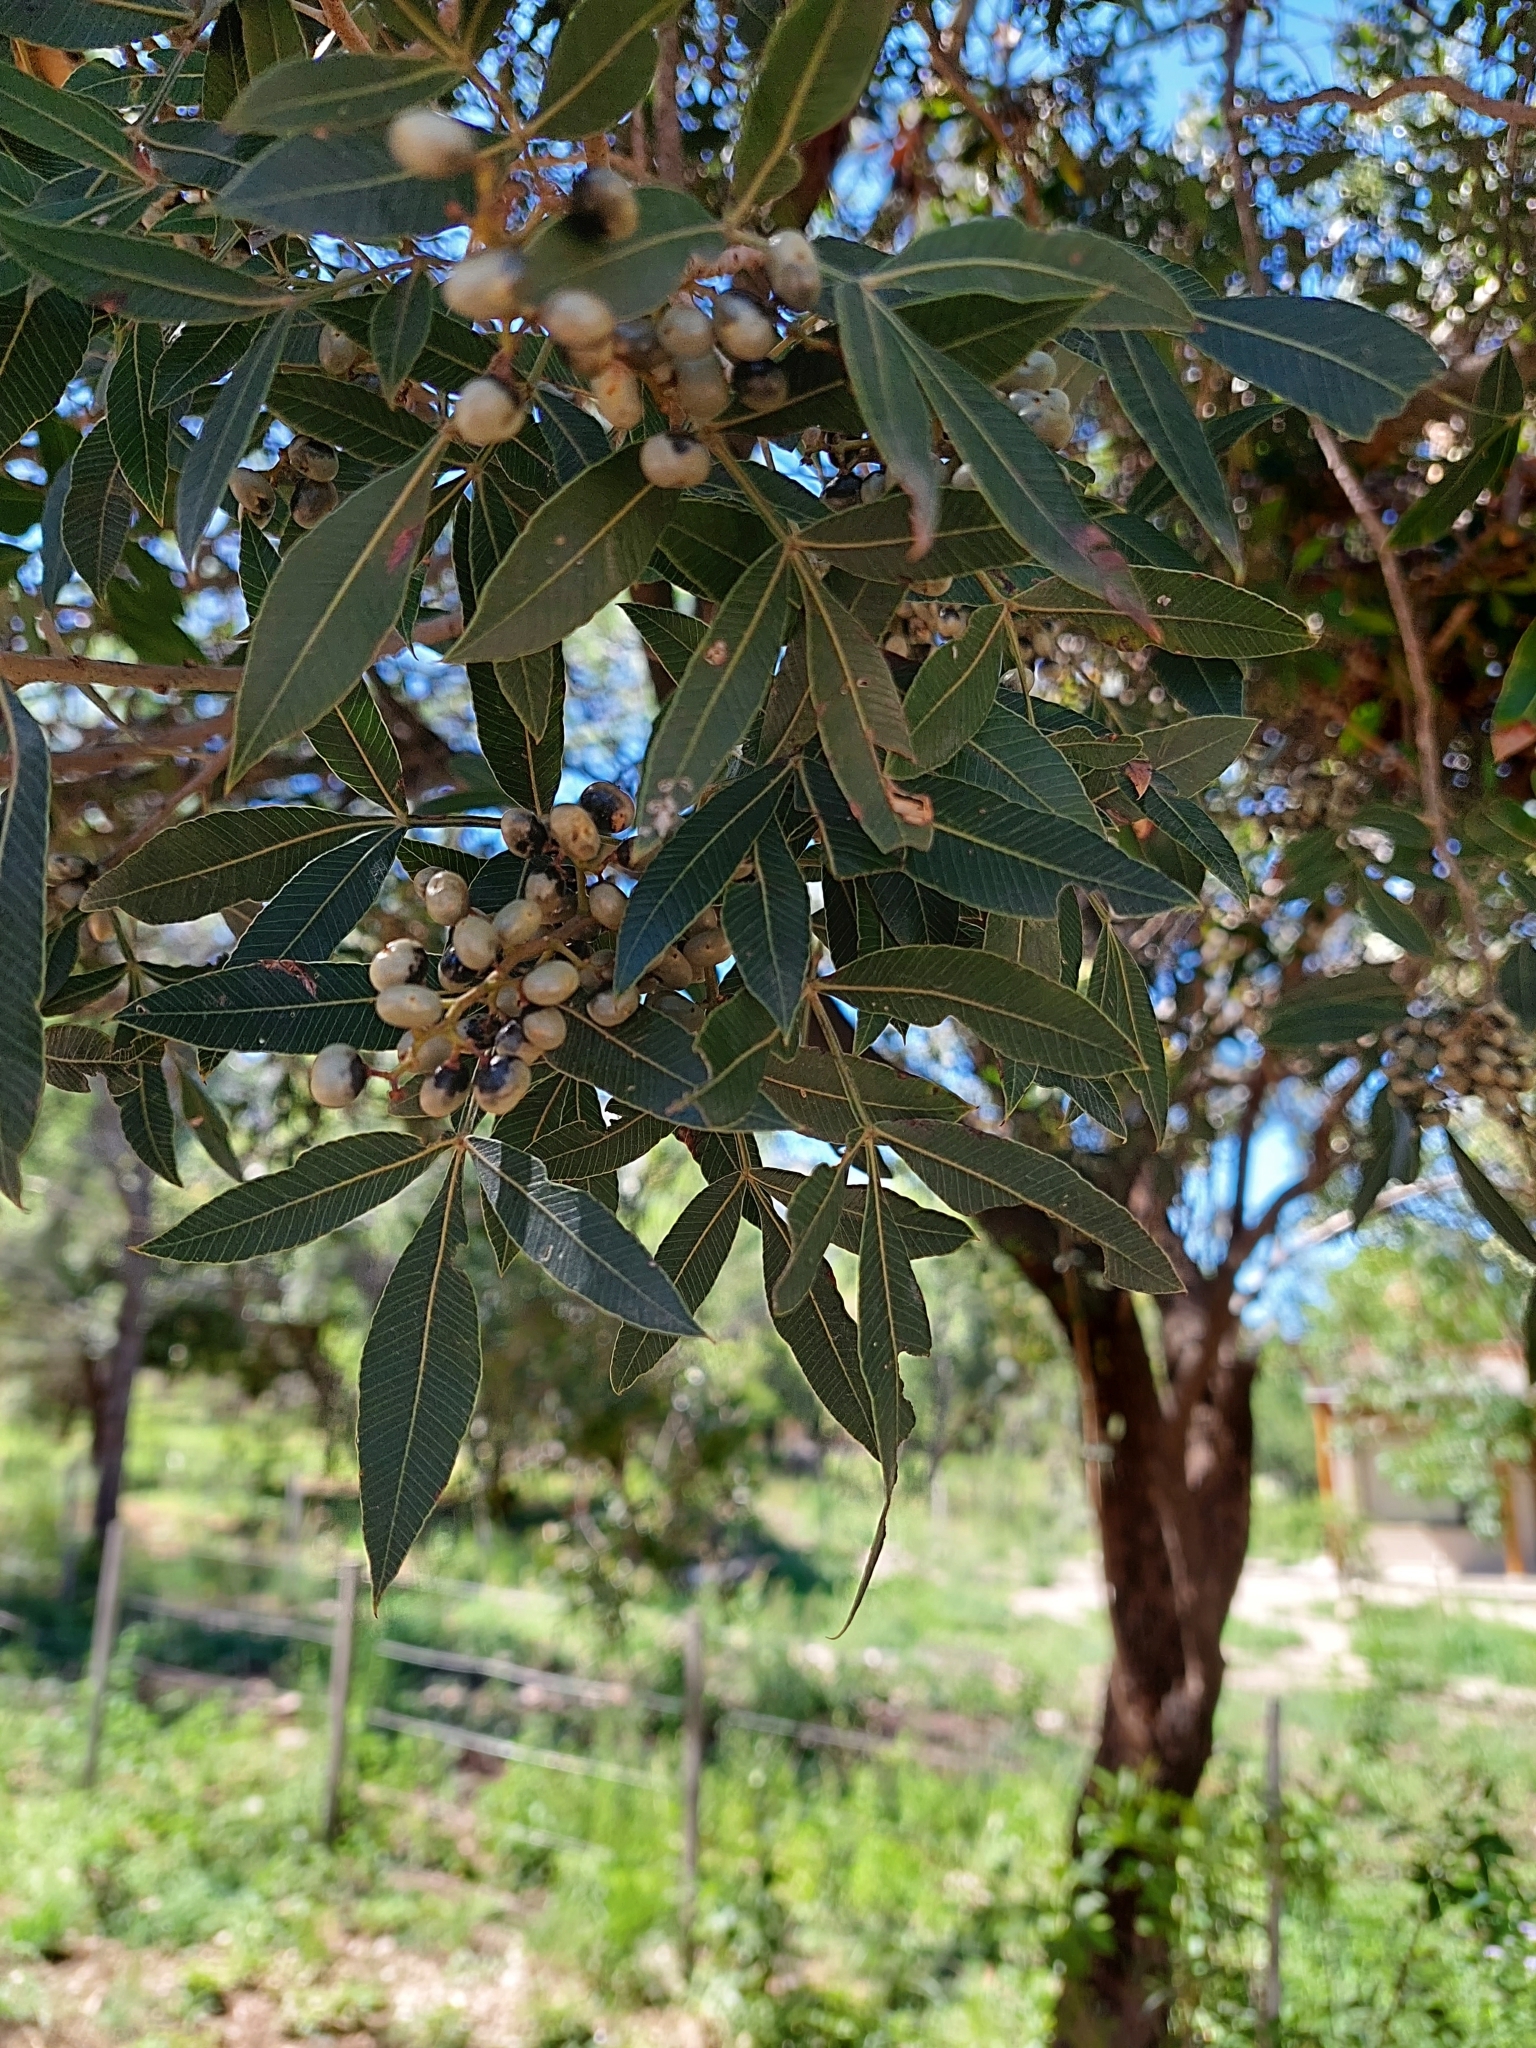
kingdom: Plantae
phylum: Tracheophyta
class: Magnoliopsida
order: Sapindales
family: Anacardiaceae
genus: Lithraea
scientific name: Lithraea molleoides
